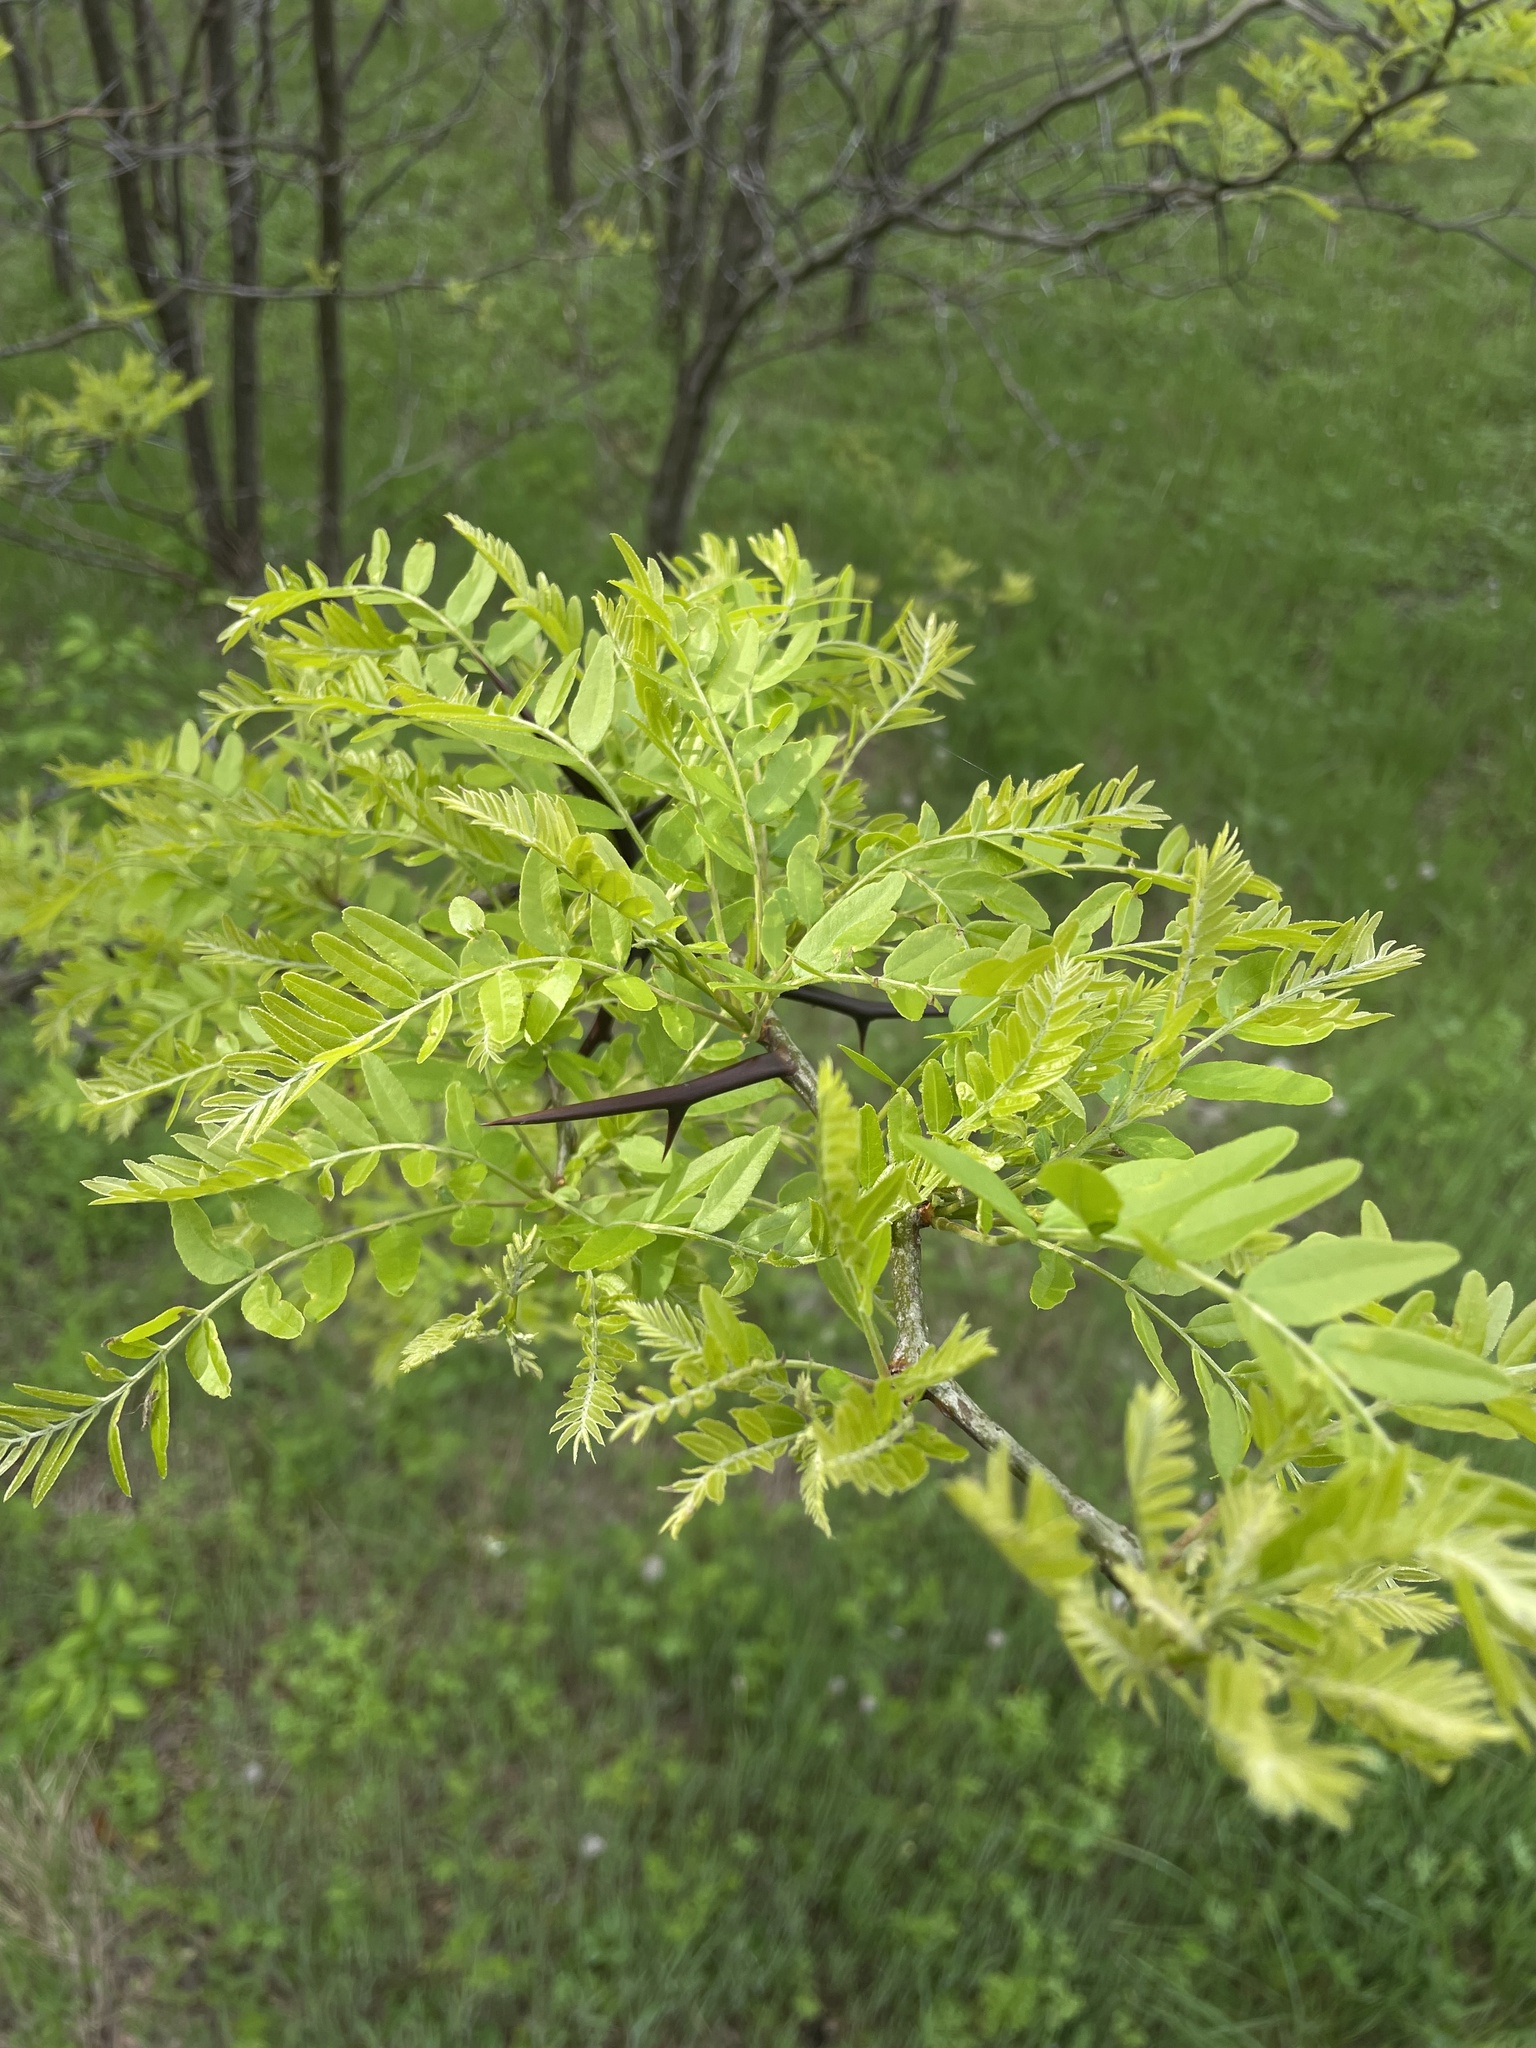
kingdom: Plantae
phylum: Tracheophyta
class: Magnoliopsida
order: Fabales
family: Fabaceae
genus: Gleditsia
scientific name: Gleditsia triacanthos
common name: Common honeylocust
